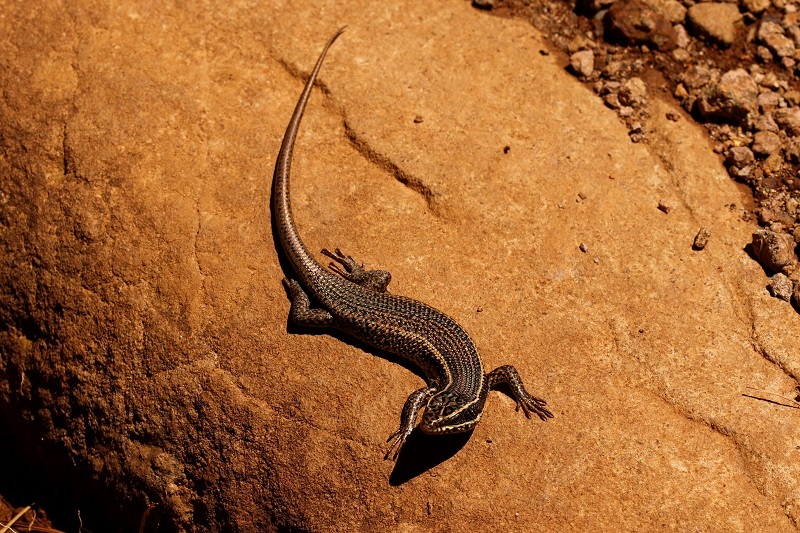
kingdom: Animalia
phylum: Chordata
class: Squamata
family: Scincidae
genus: Trachylepis
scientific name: Trachylepis punctatissima
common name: Montane speckled skink
